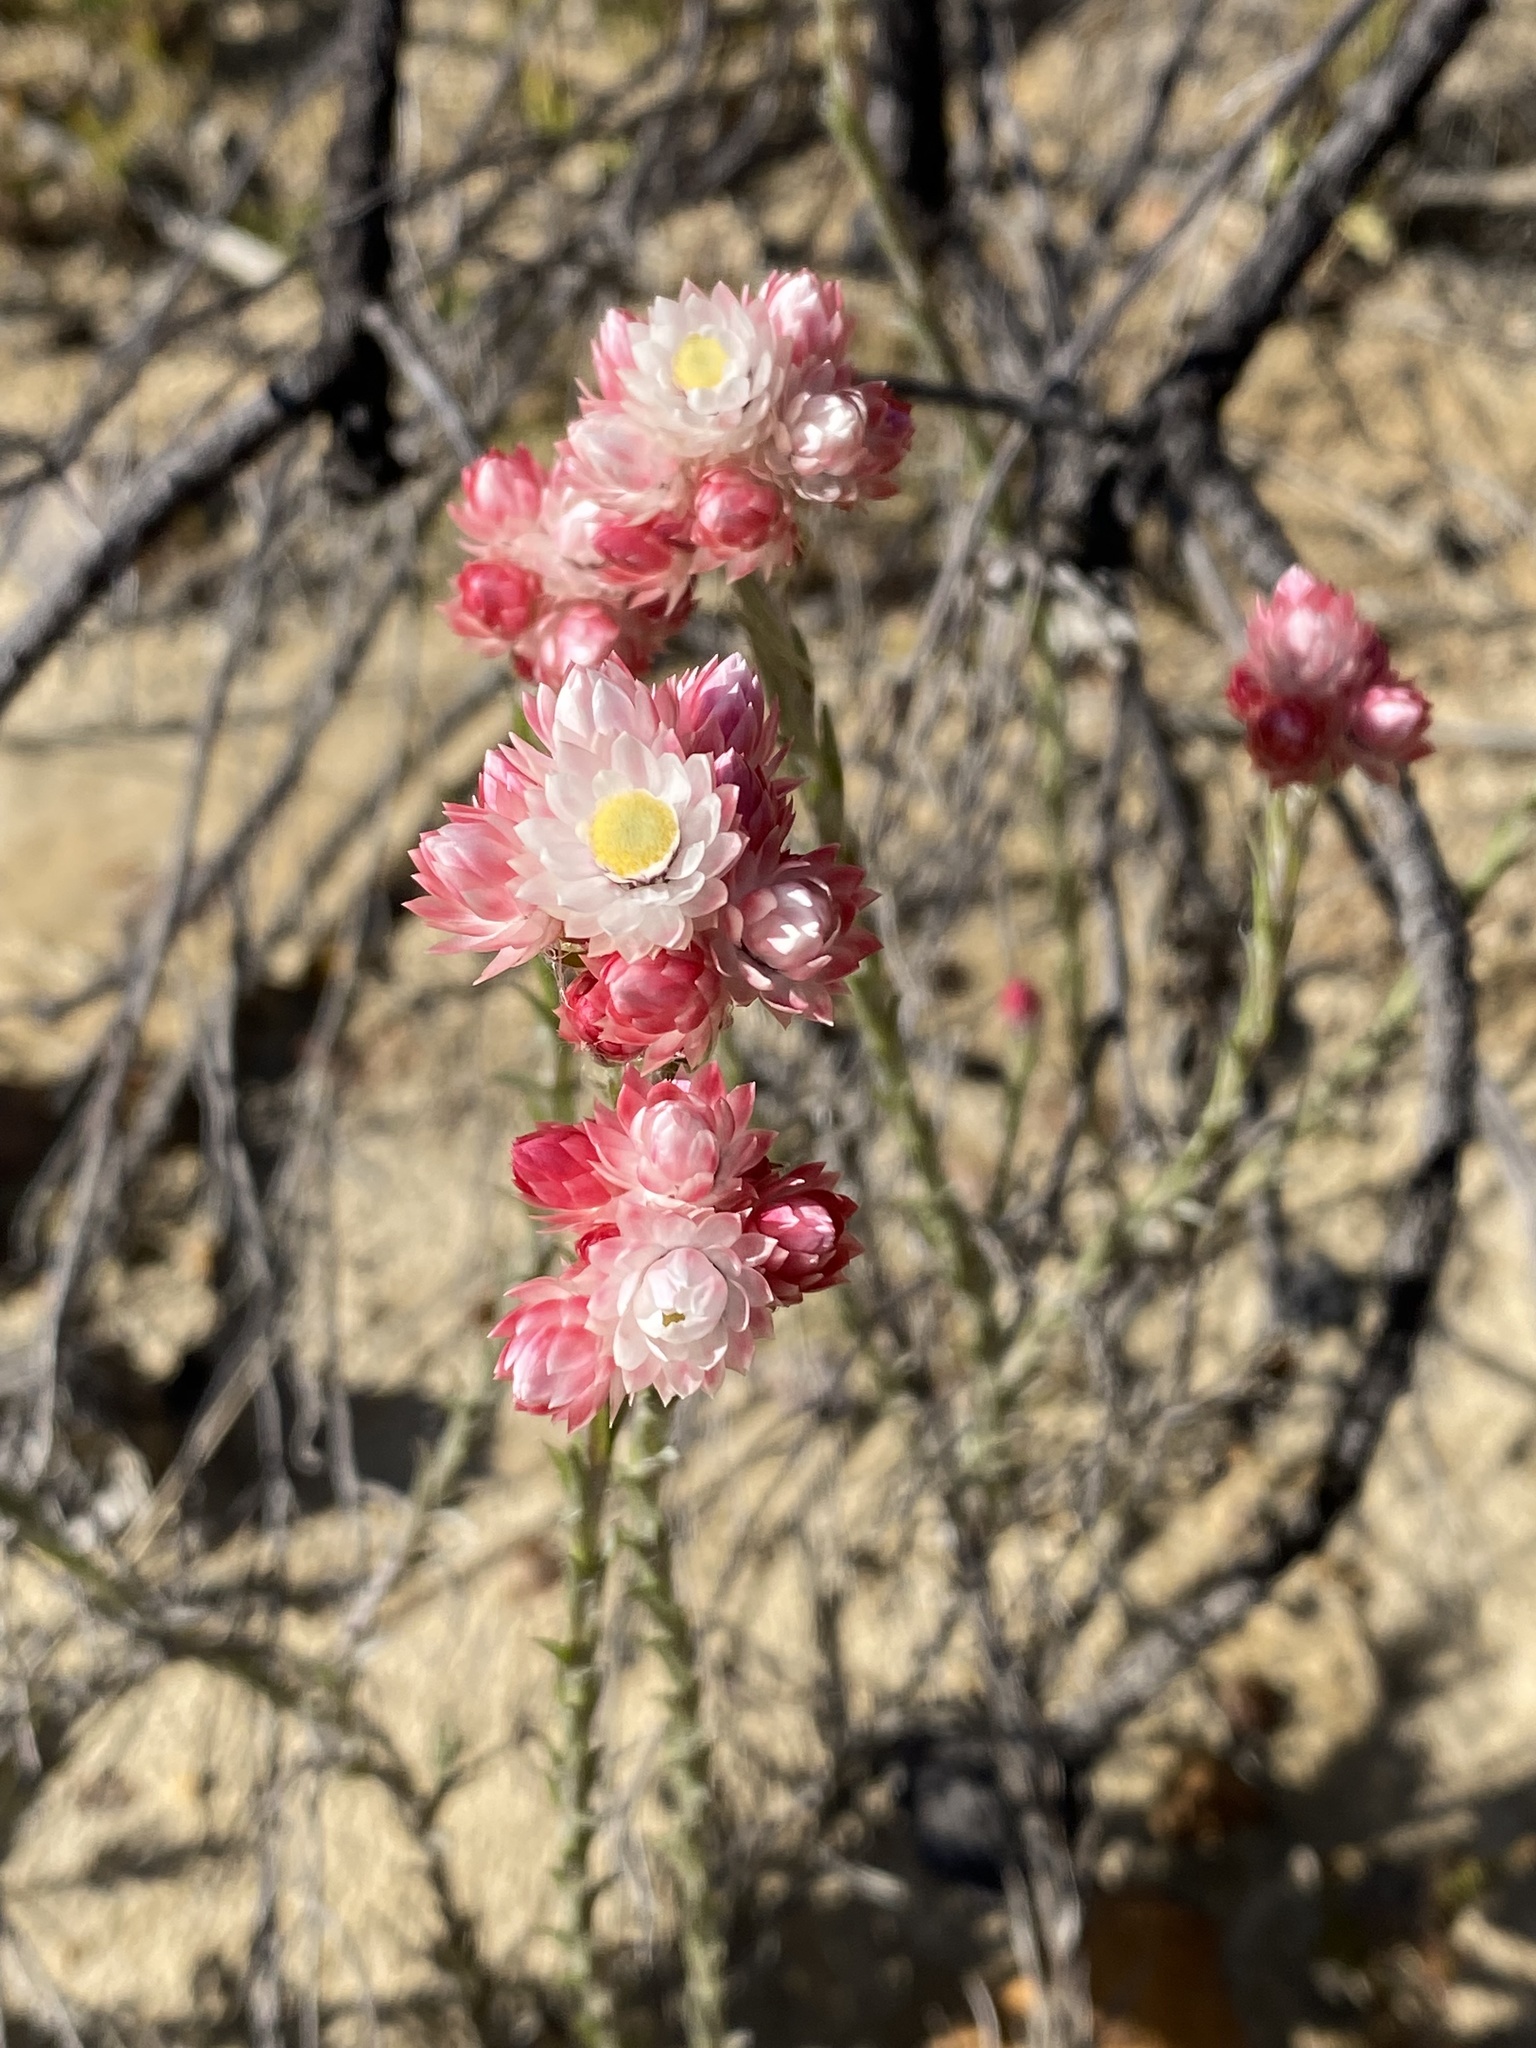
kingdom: Plantae
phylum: Tracheophyta
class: Magnoliopsida
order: Asterales
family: Asteraceae
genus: Achyranthemum
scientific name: Achyranthemum paniculatum
